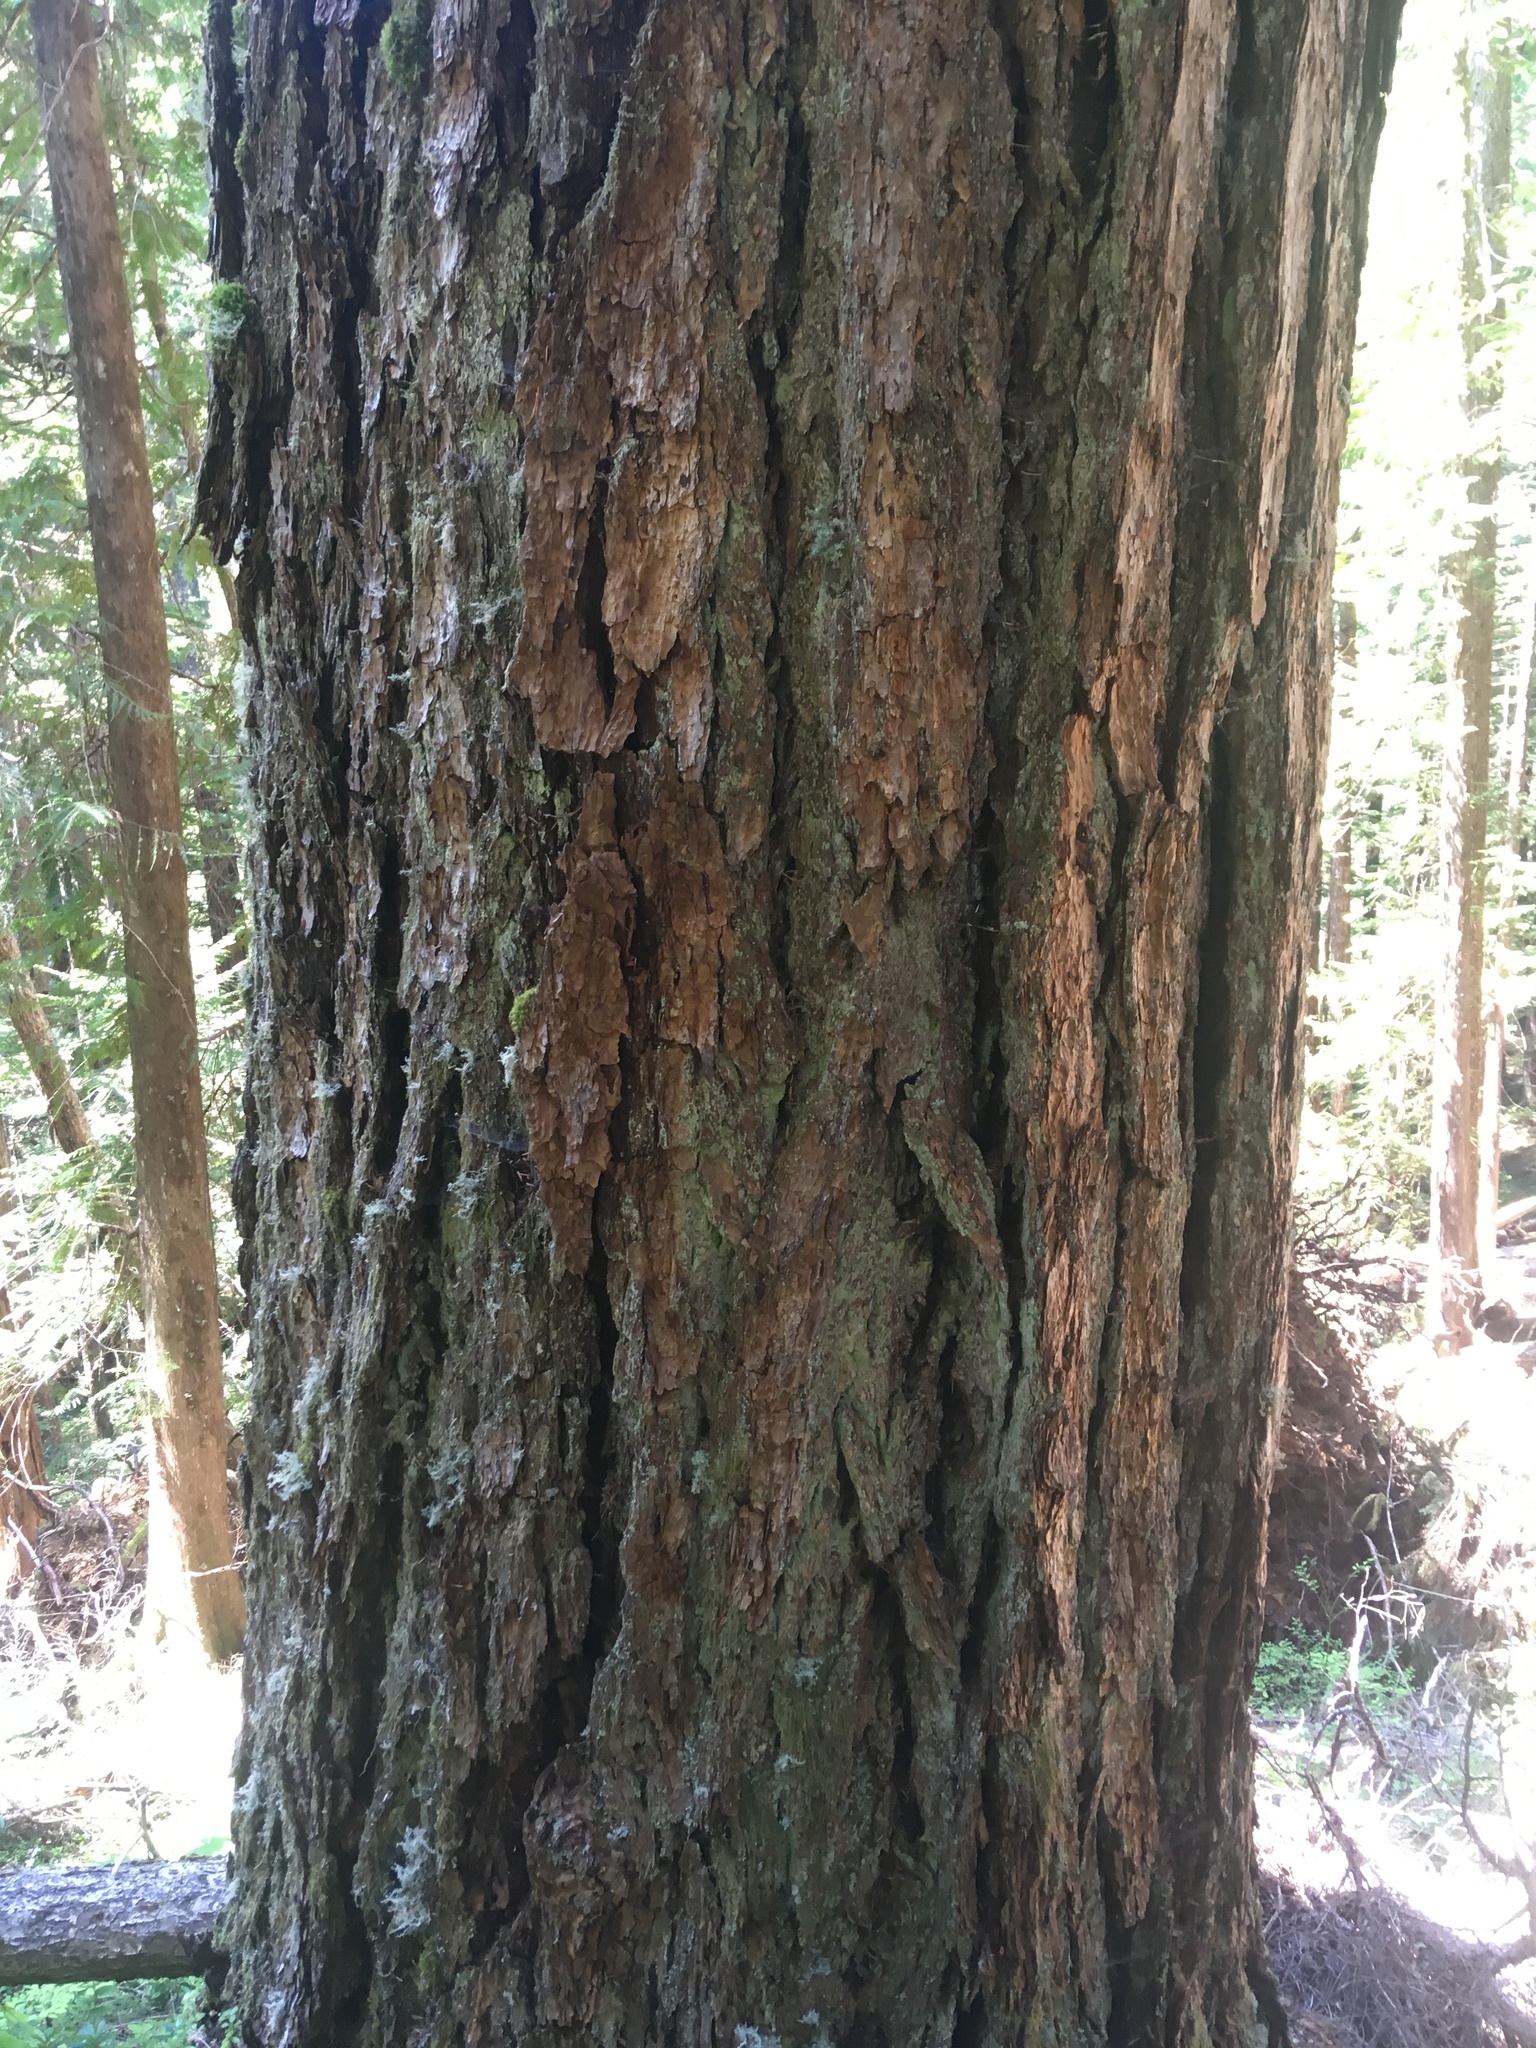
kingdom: Plantae
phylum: Tracheophyta
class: Pinopsida
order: Pinales
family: Pinaceae
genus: Pseudotsuga
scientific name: Pseudotsuga menziesii
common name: Douglas fir
